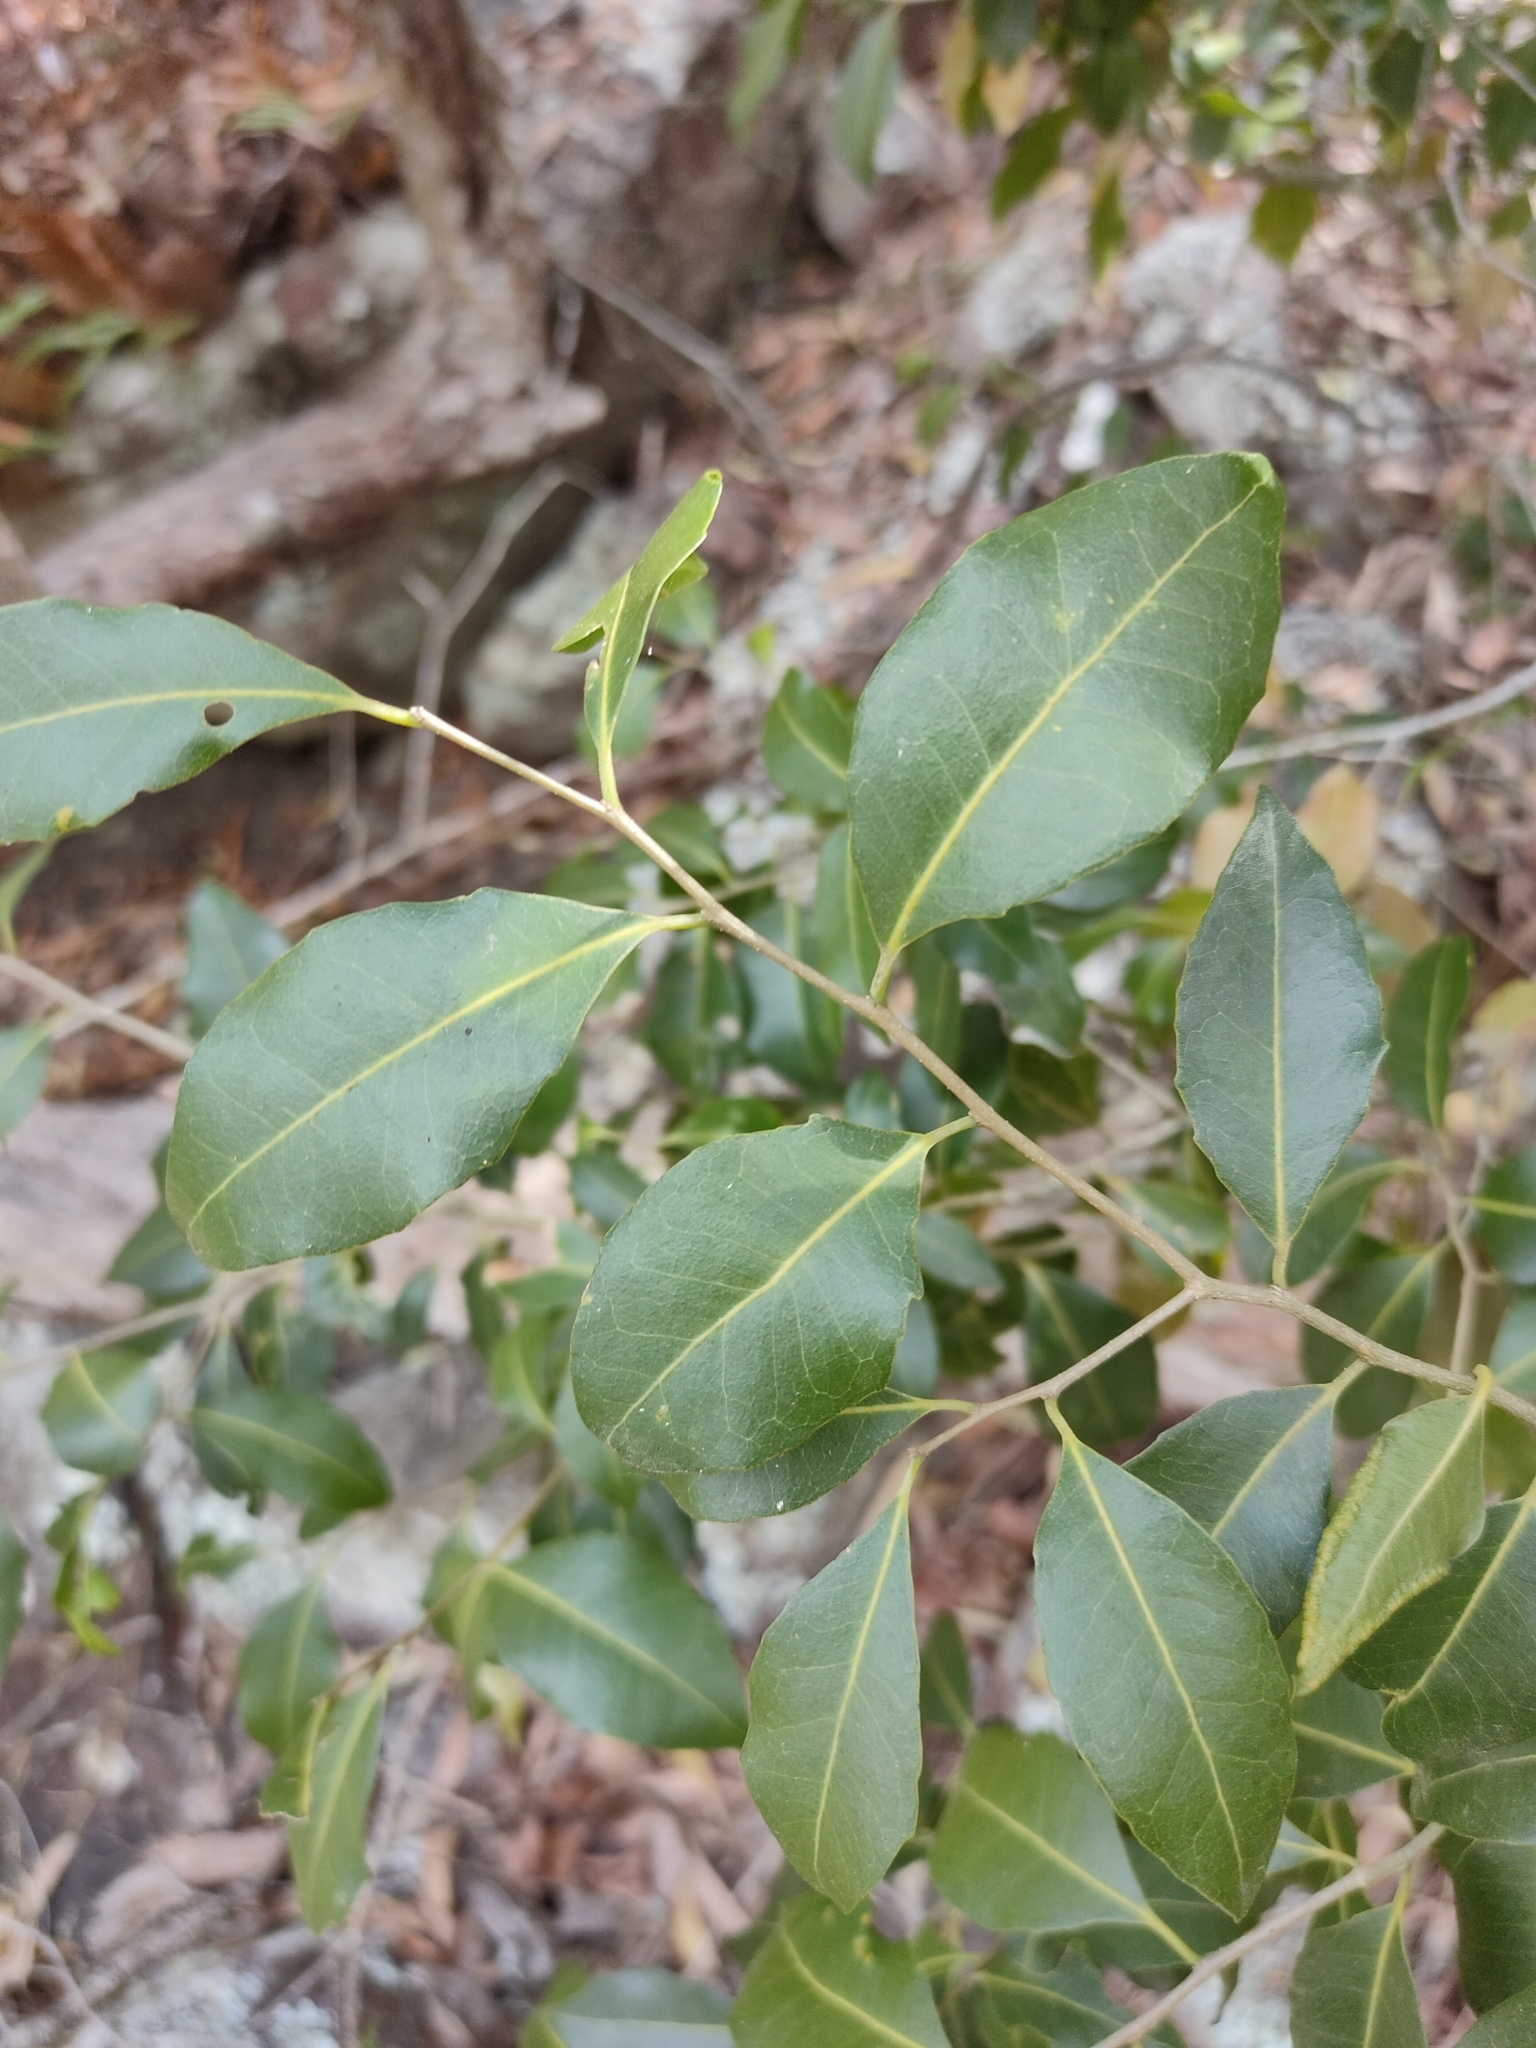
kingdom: Plantae
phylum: Tracheophyta
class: Magnoliopsida
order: Malpighiales
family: Putranjivaceae
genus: Drypetes
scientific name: Drypetes deplanchei
